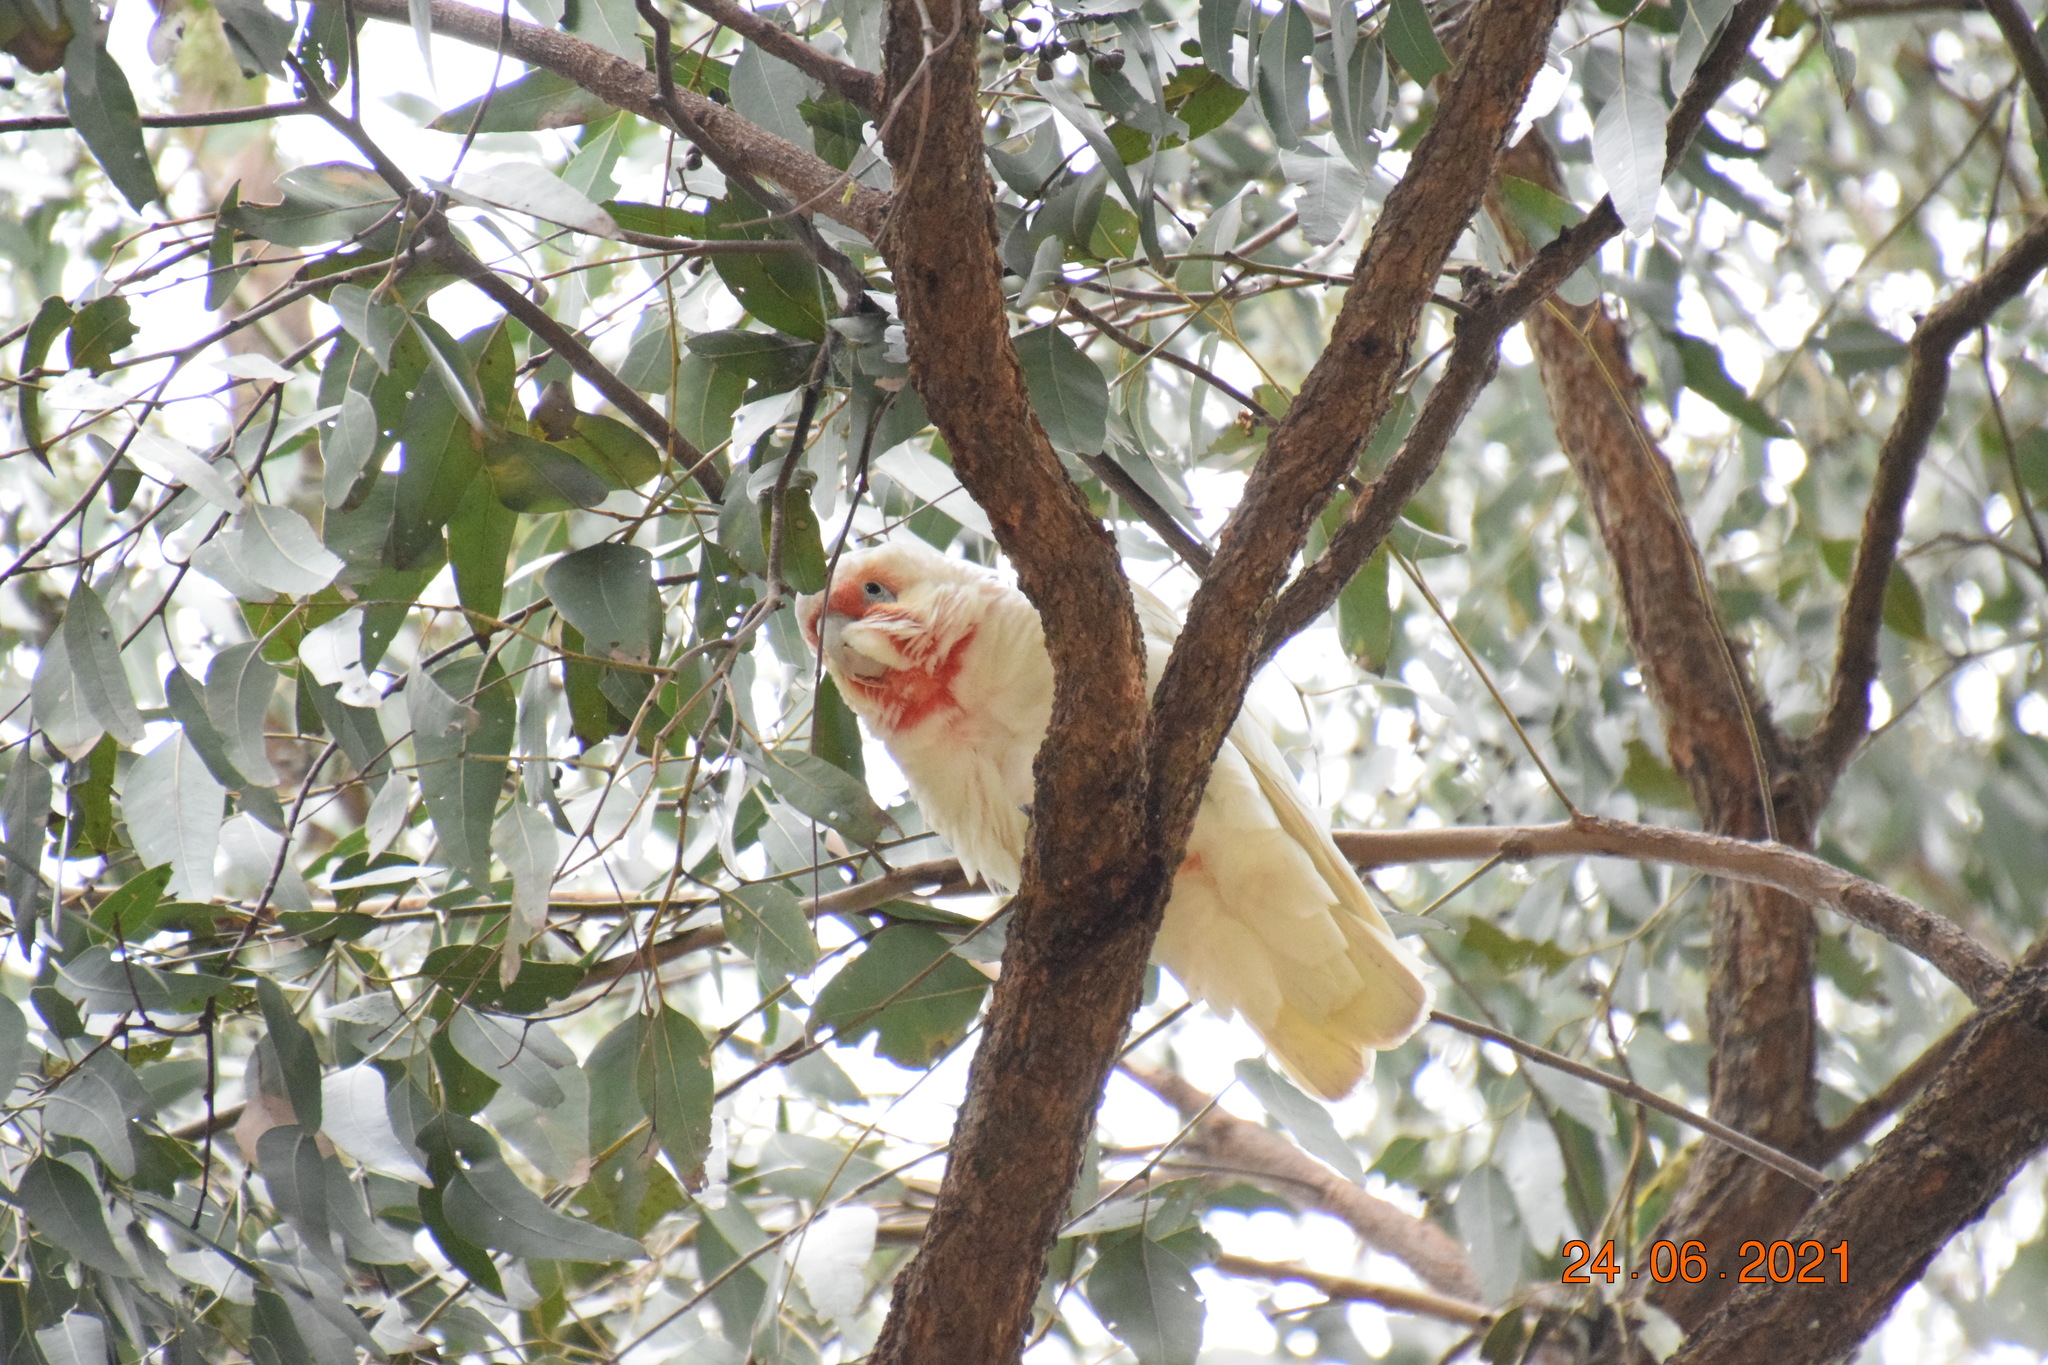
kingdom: Animalia
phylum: Chordata
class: Aves
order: Psittaciformes
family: Psittacidae
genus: Cacatua
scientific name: Cacatua tenuirostris
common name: Long-billed corella
